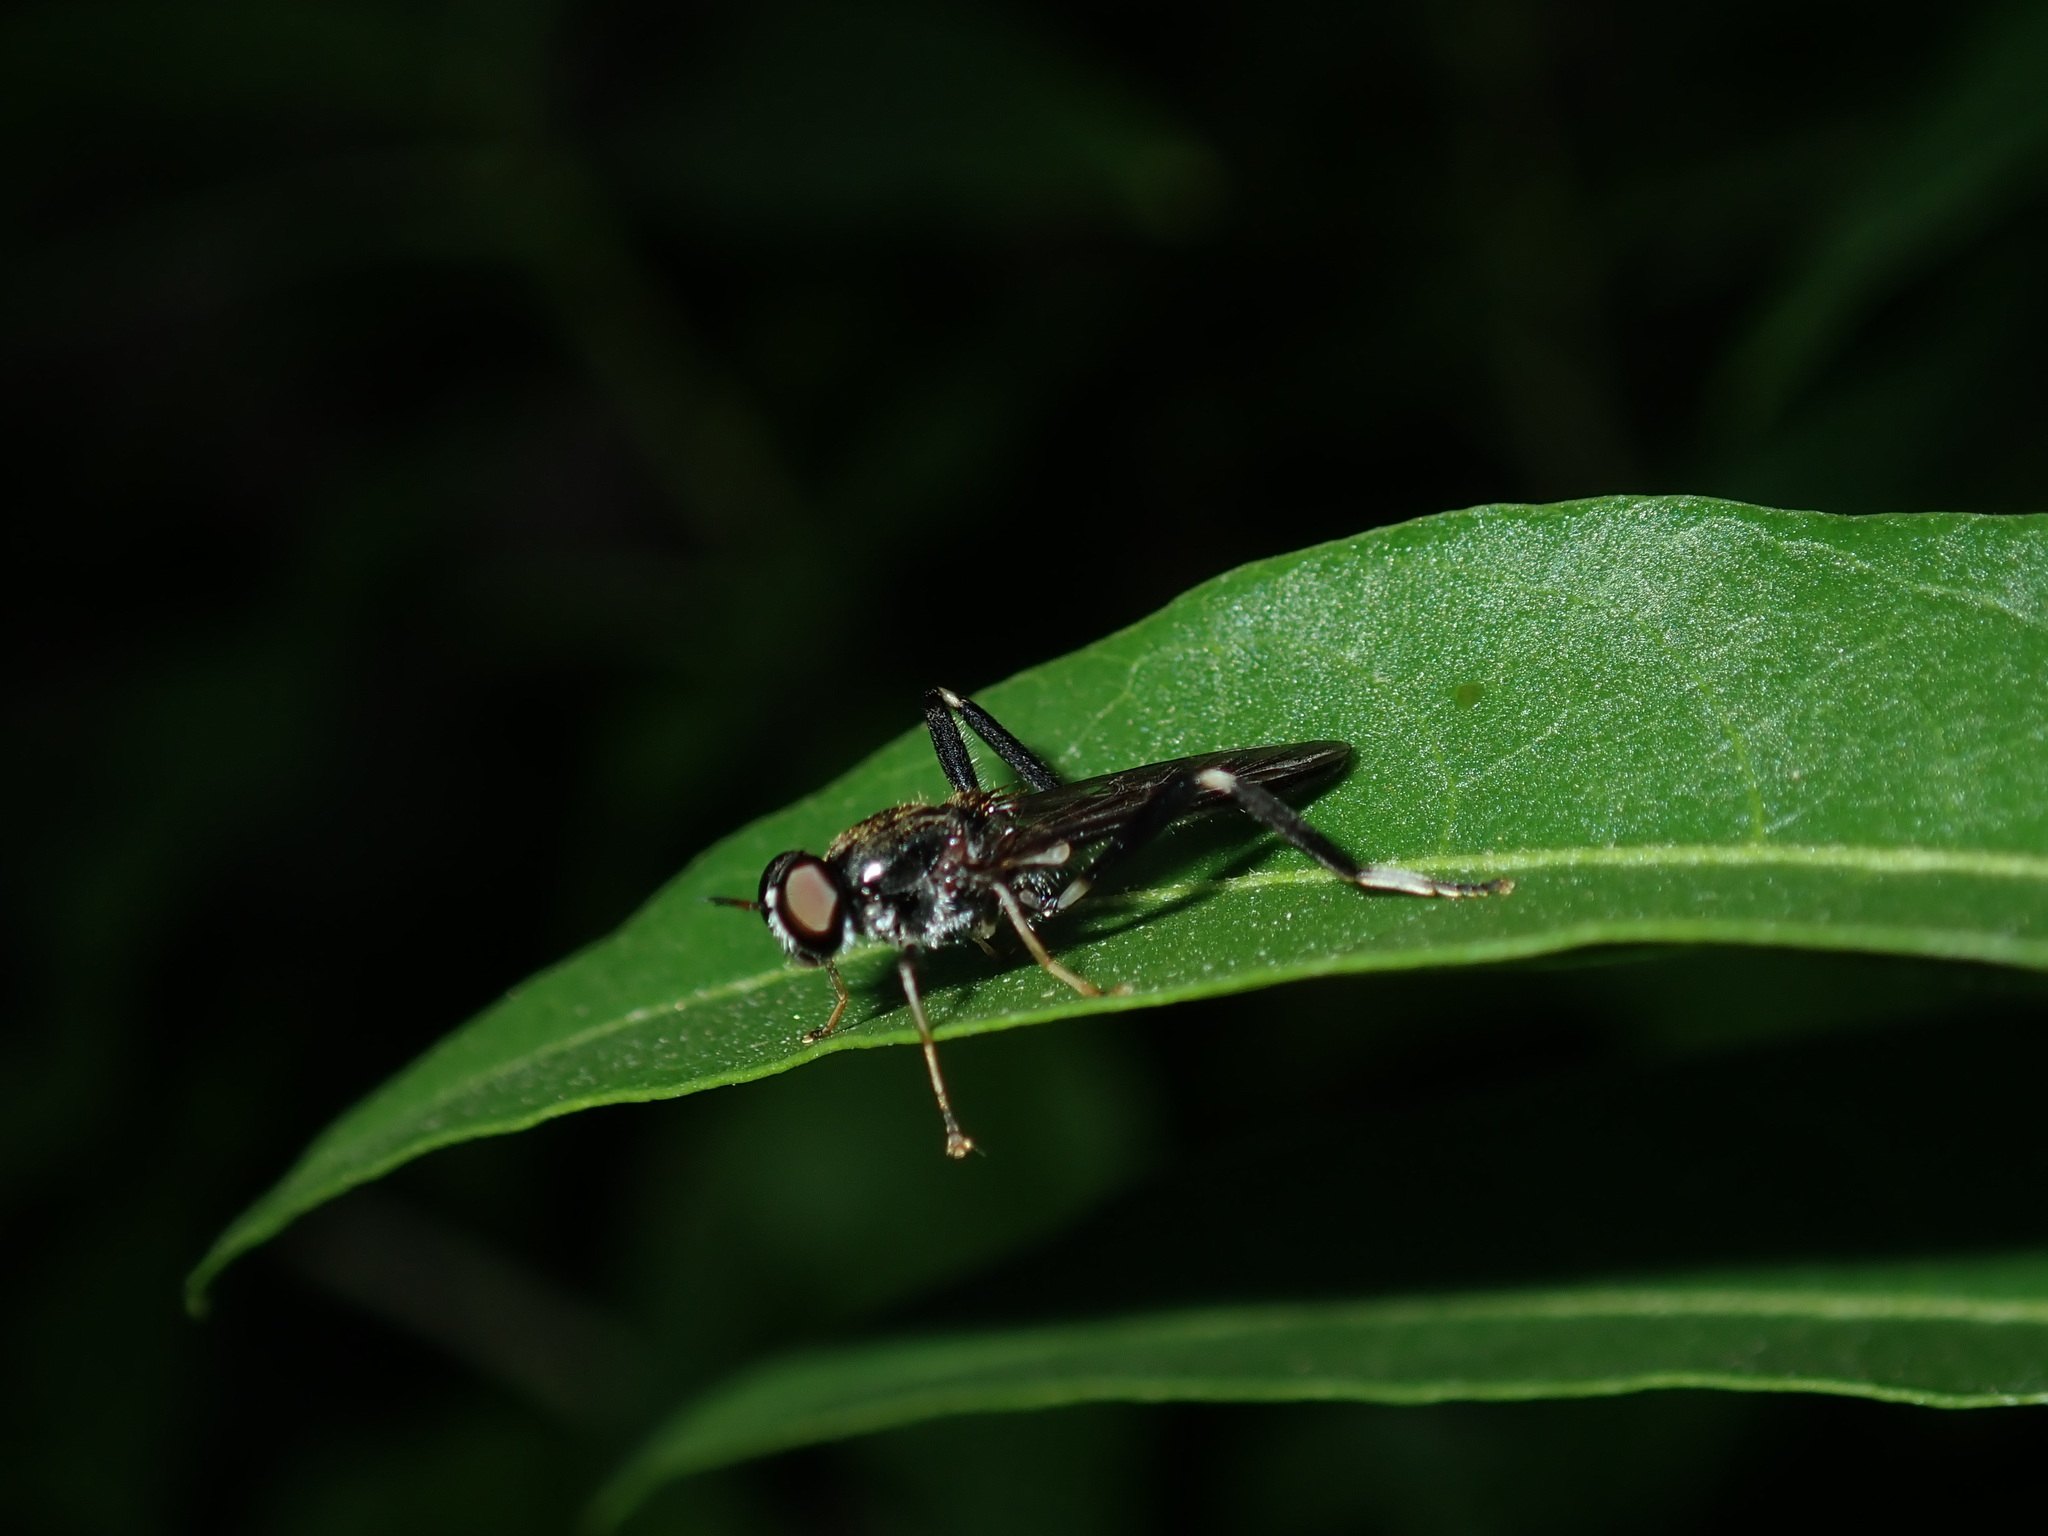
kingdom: Animalia
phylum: Arthropoda
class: Insecta
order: Diptera
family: Stratiomyidae
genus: Exaireta
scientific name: Exaireta spinigera
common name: Blue soldier fly
